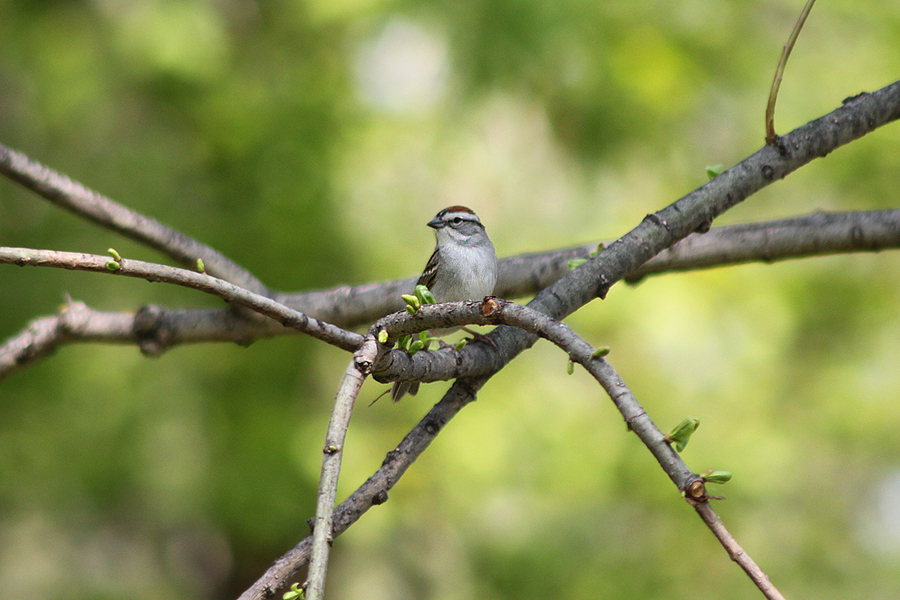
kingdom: Animalia
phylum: Chordata
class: Aves
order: Passeriformes
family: Passerellidae
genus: Spizella
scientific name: Spizella passerina
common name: Chipping sparrow
